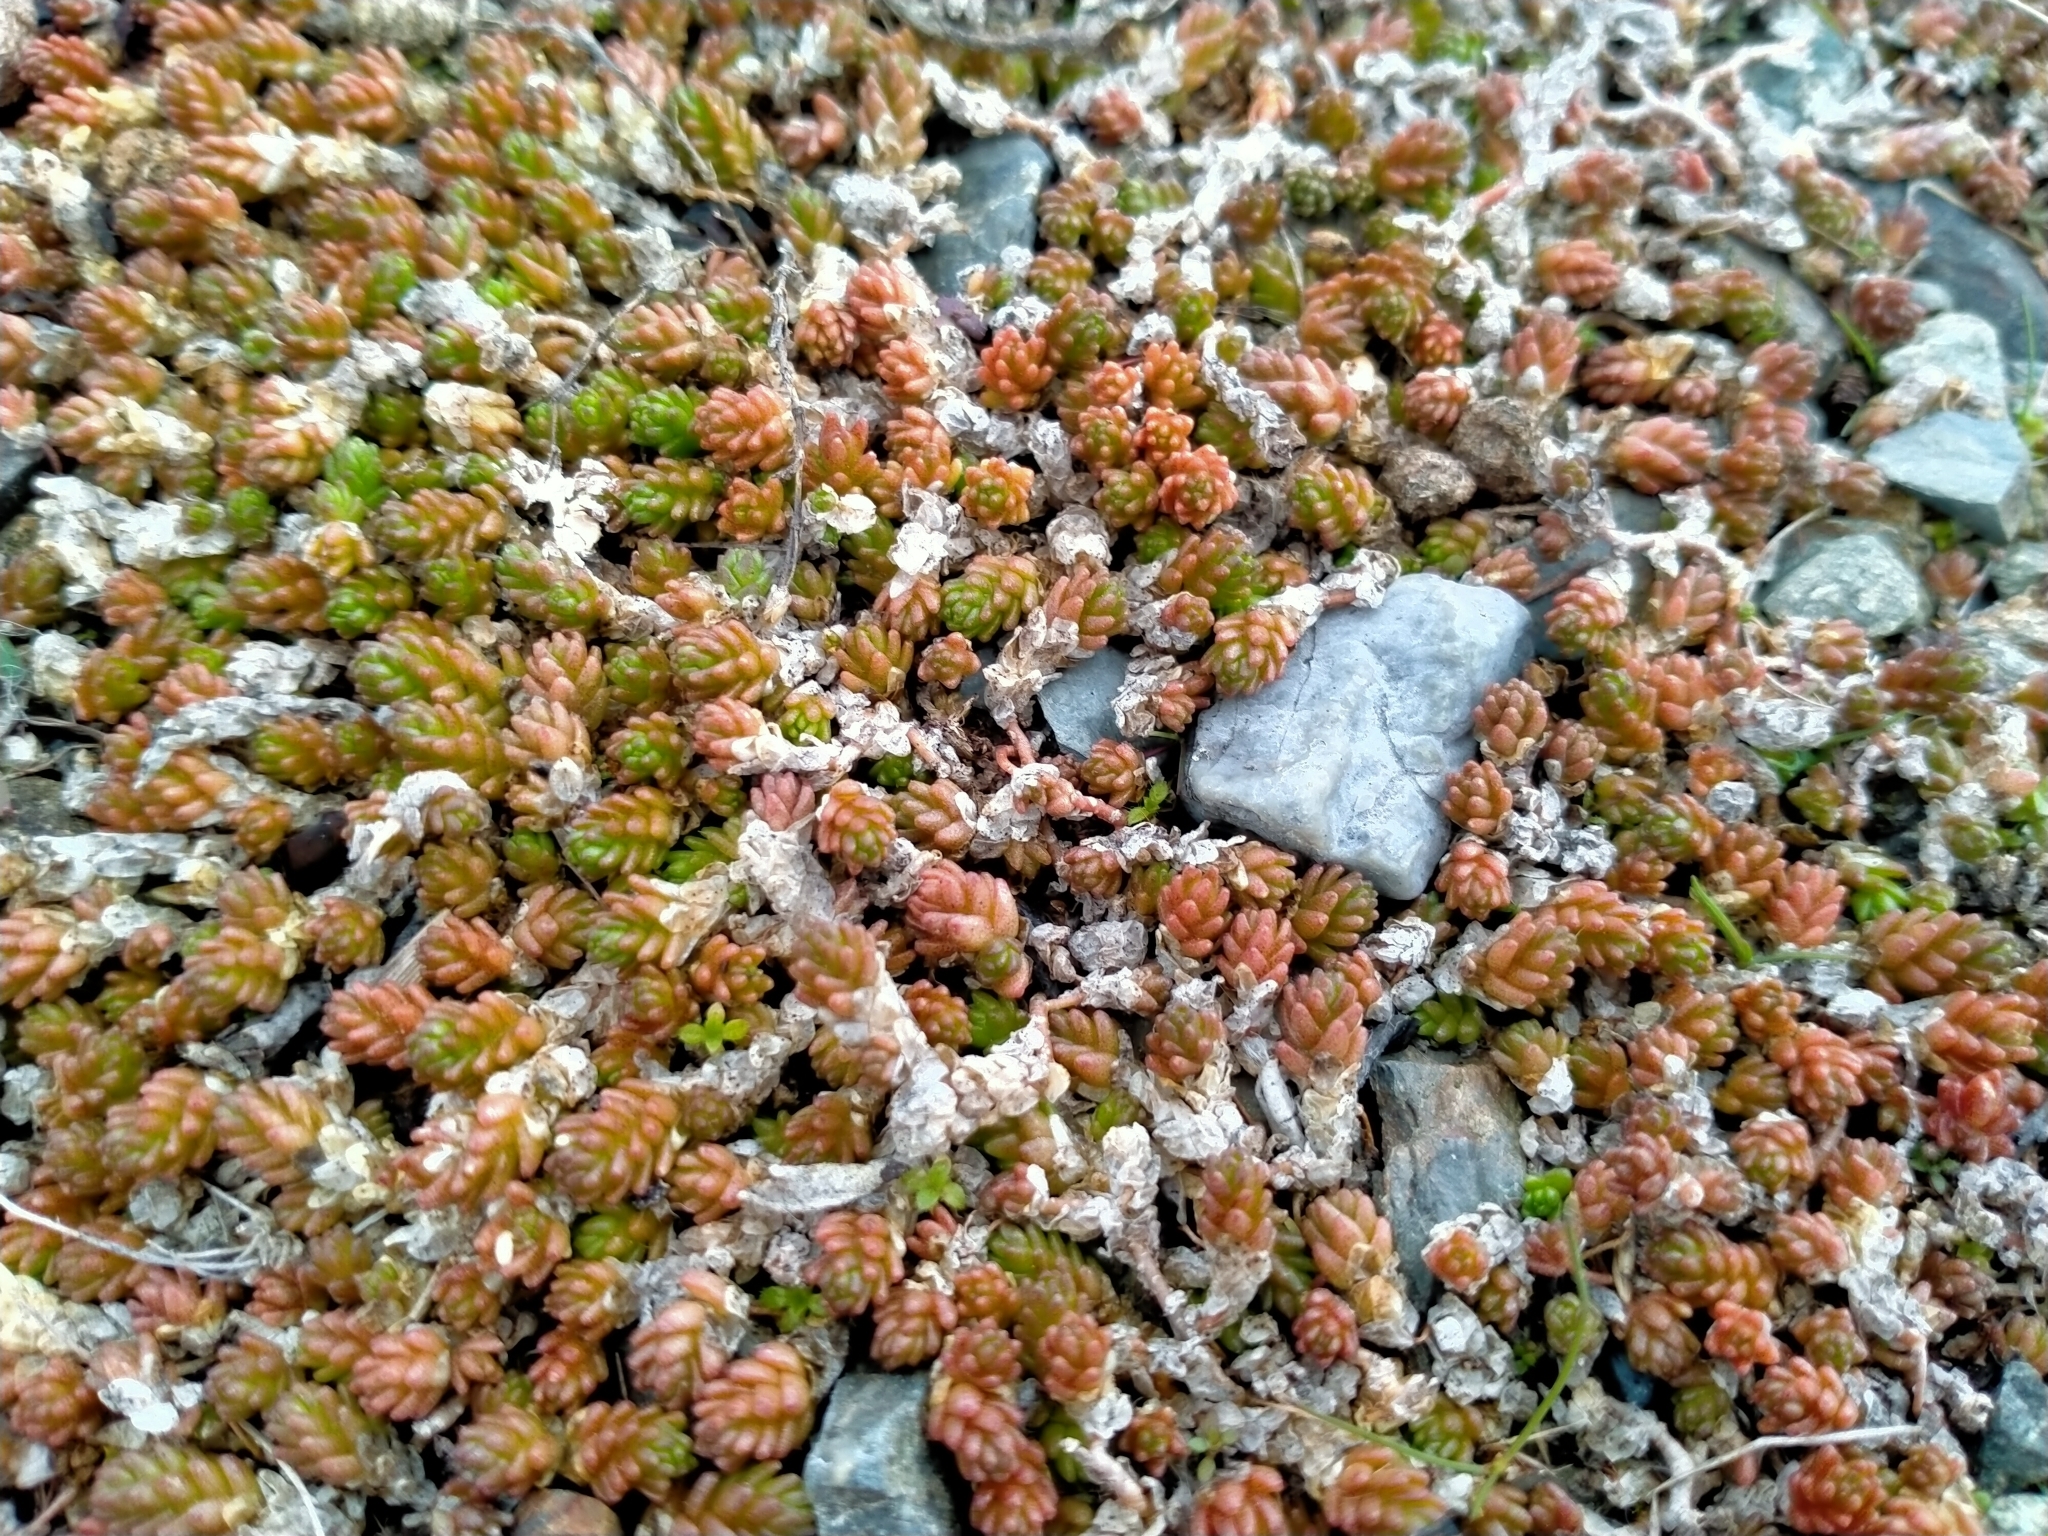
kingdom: Plantae
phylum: Tracheophyta
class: Magnoliopsida
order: Saxifragales
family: Crassulaceae
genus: Sedum
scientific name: Sedum acre
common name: Biting stonecrop
